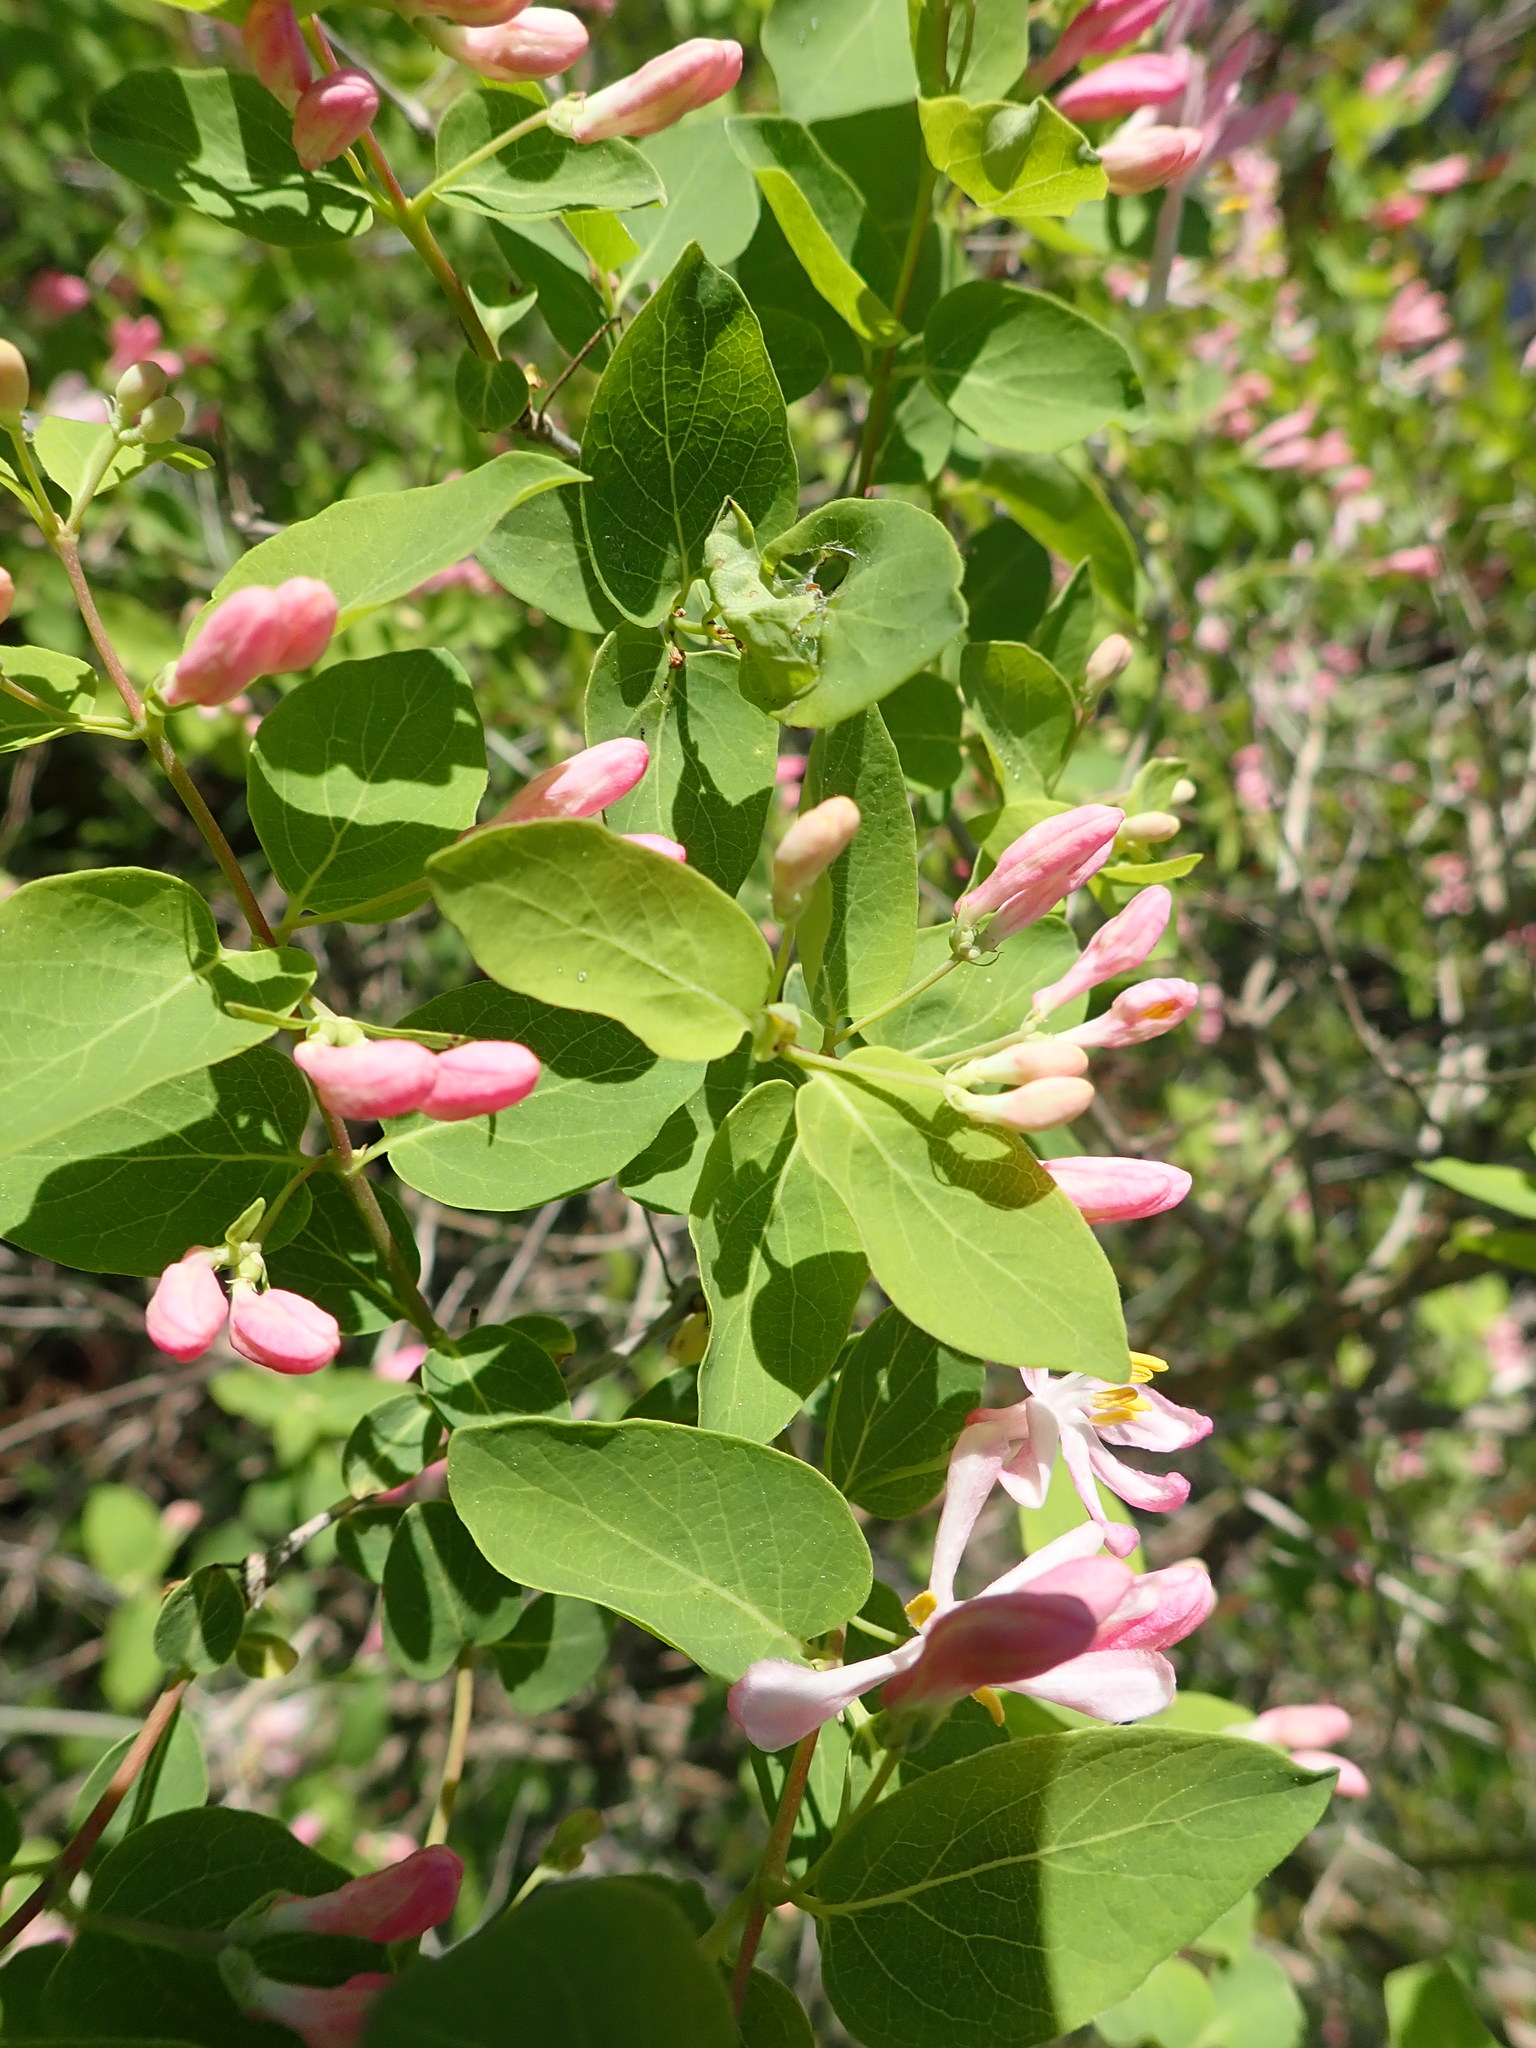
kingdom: Plantae
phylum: Tracheophyta
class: Magnoliopsida
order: Dipsacales
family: Caprifoliaceae
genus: Lonicera
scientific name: Lonicera tatarica
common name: Tatarian honeysuckle
